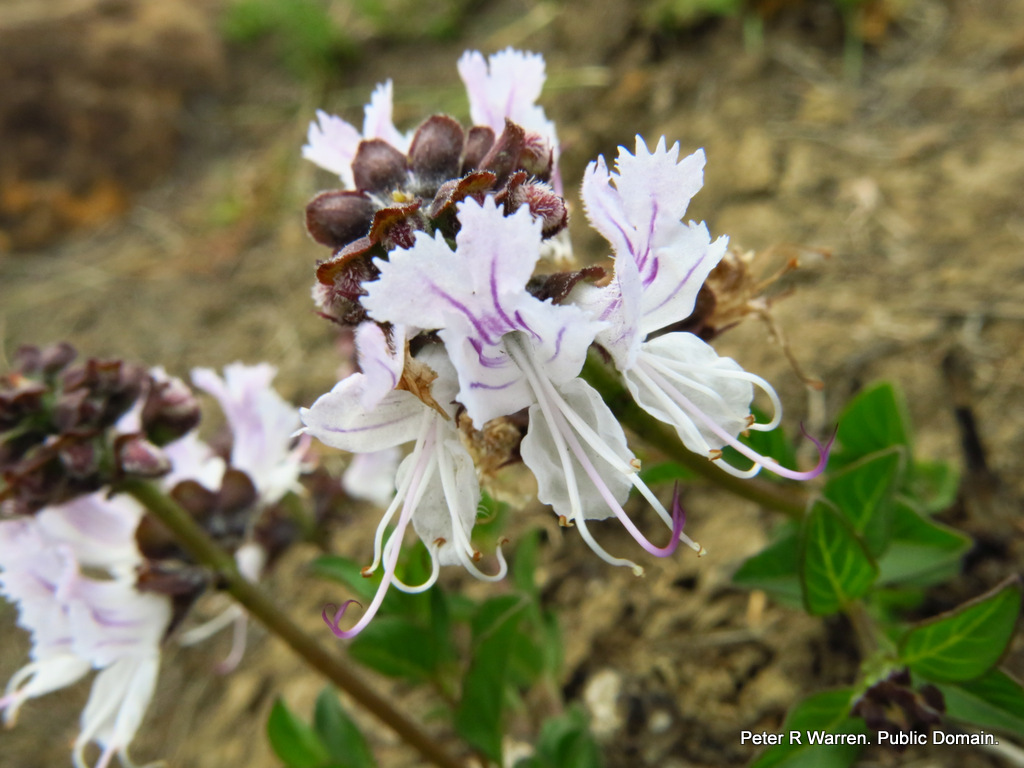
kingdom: Plantae
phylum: Tracheophyta
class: Magnoliopsida
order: Lamiales
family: Lamiaceae
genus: Ocimum
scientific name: Ocimum obovatum
